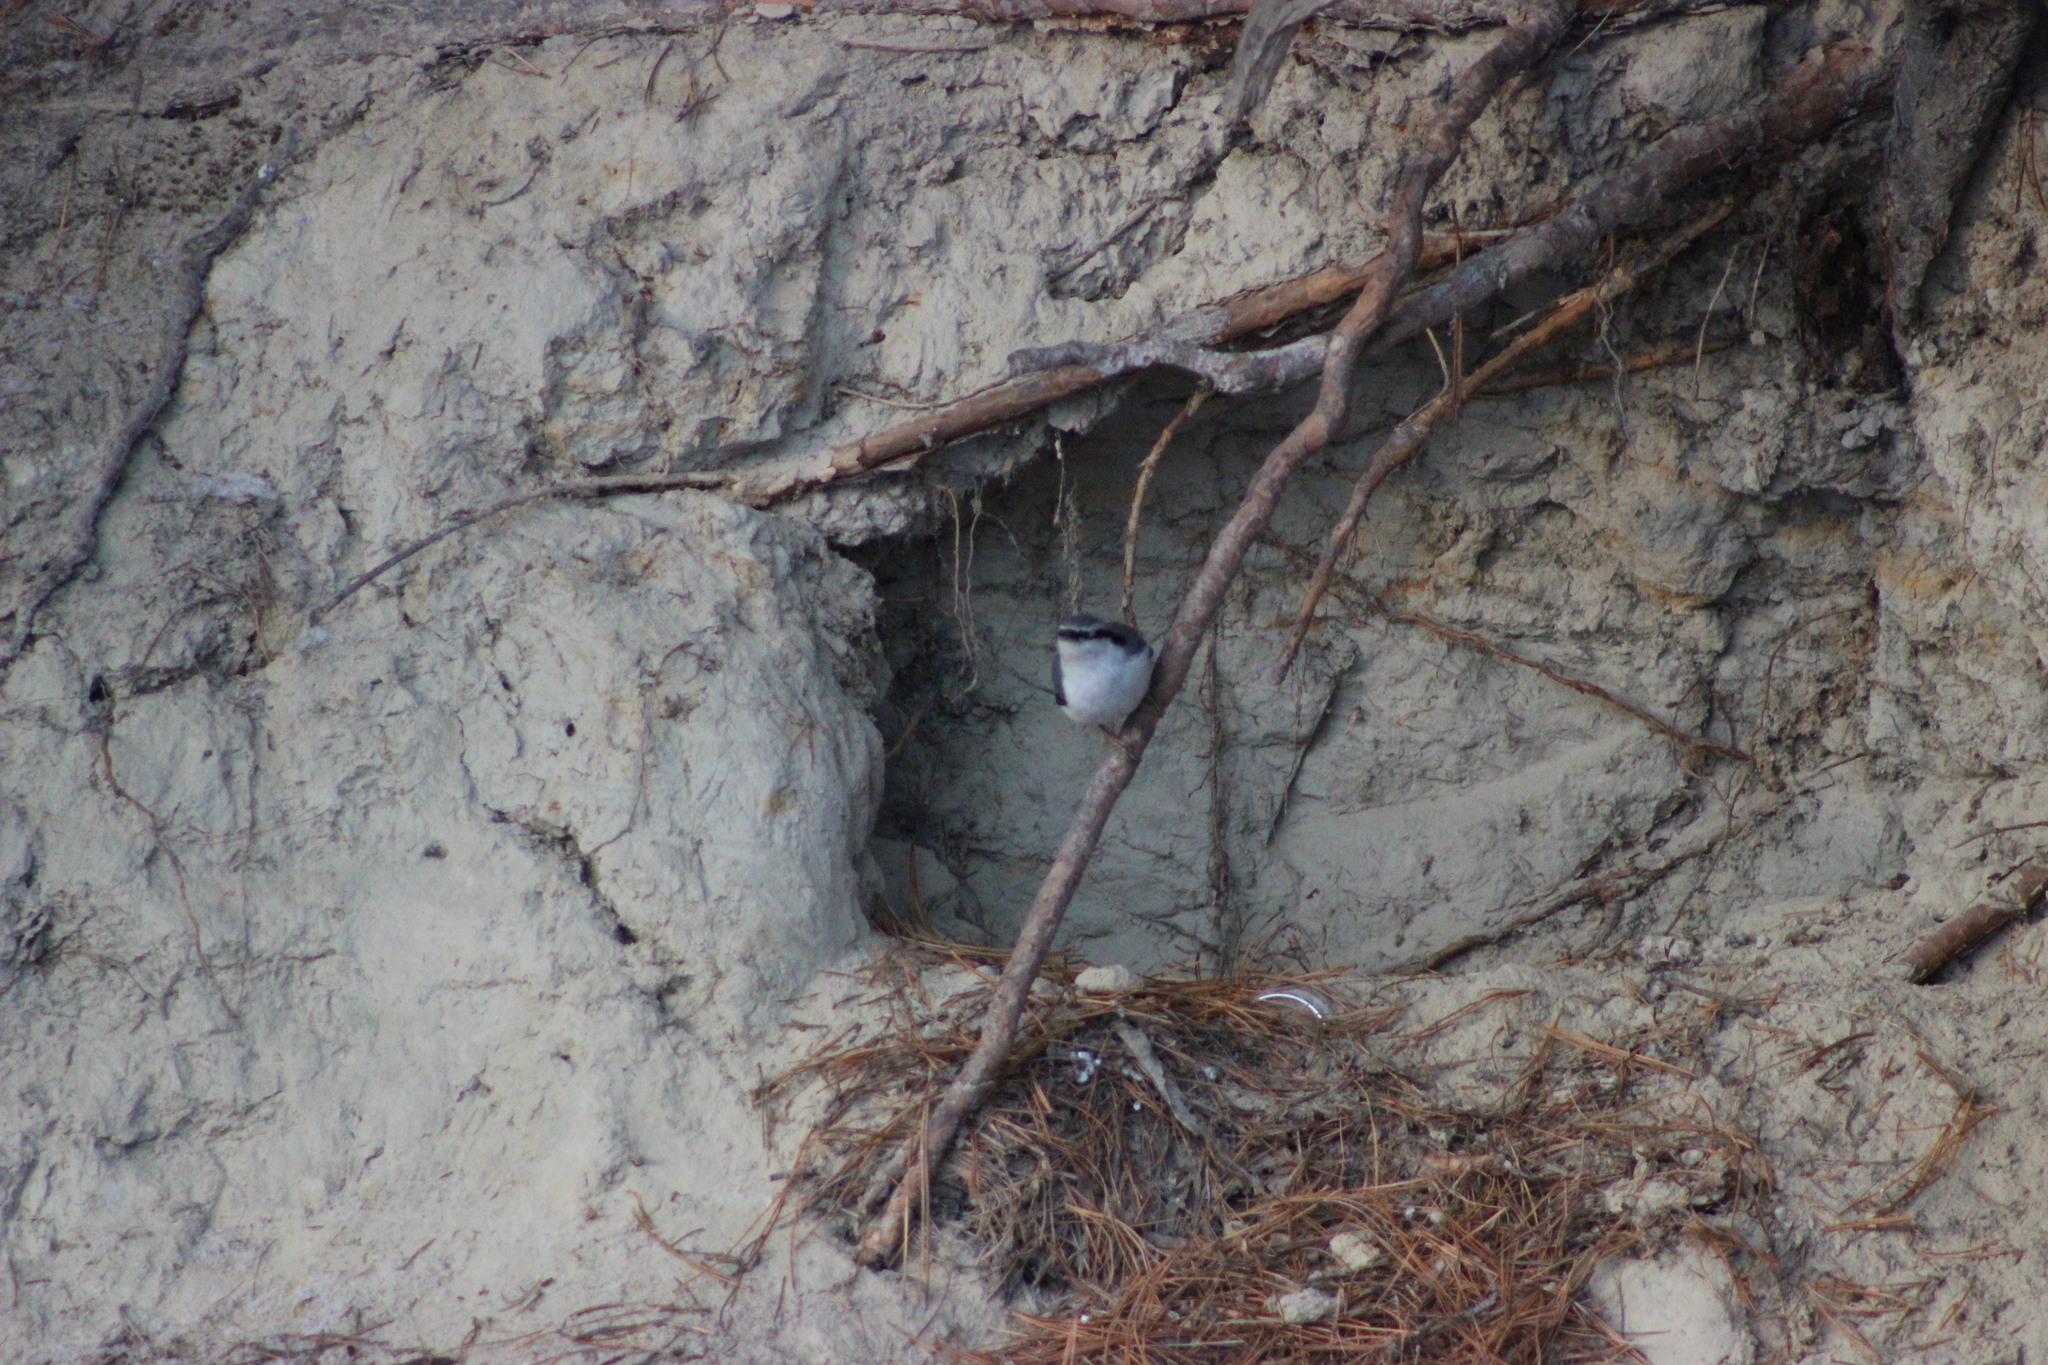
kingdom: Animalia
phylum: Chordata
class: Aves
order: Passeriformes
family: Sittidae
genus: Sitta
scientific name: Sitta europaea
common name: Eurasian nuthatch
